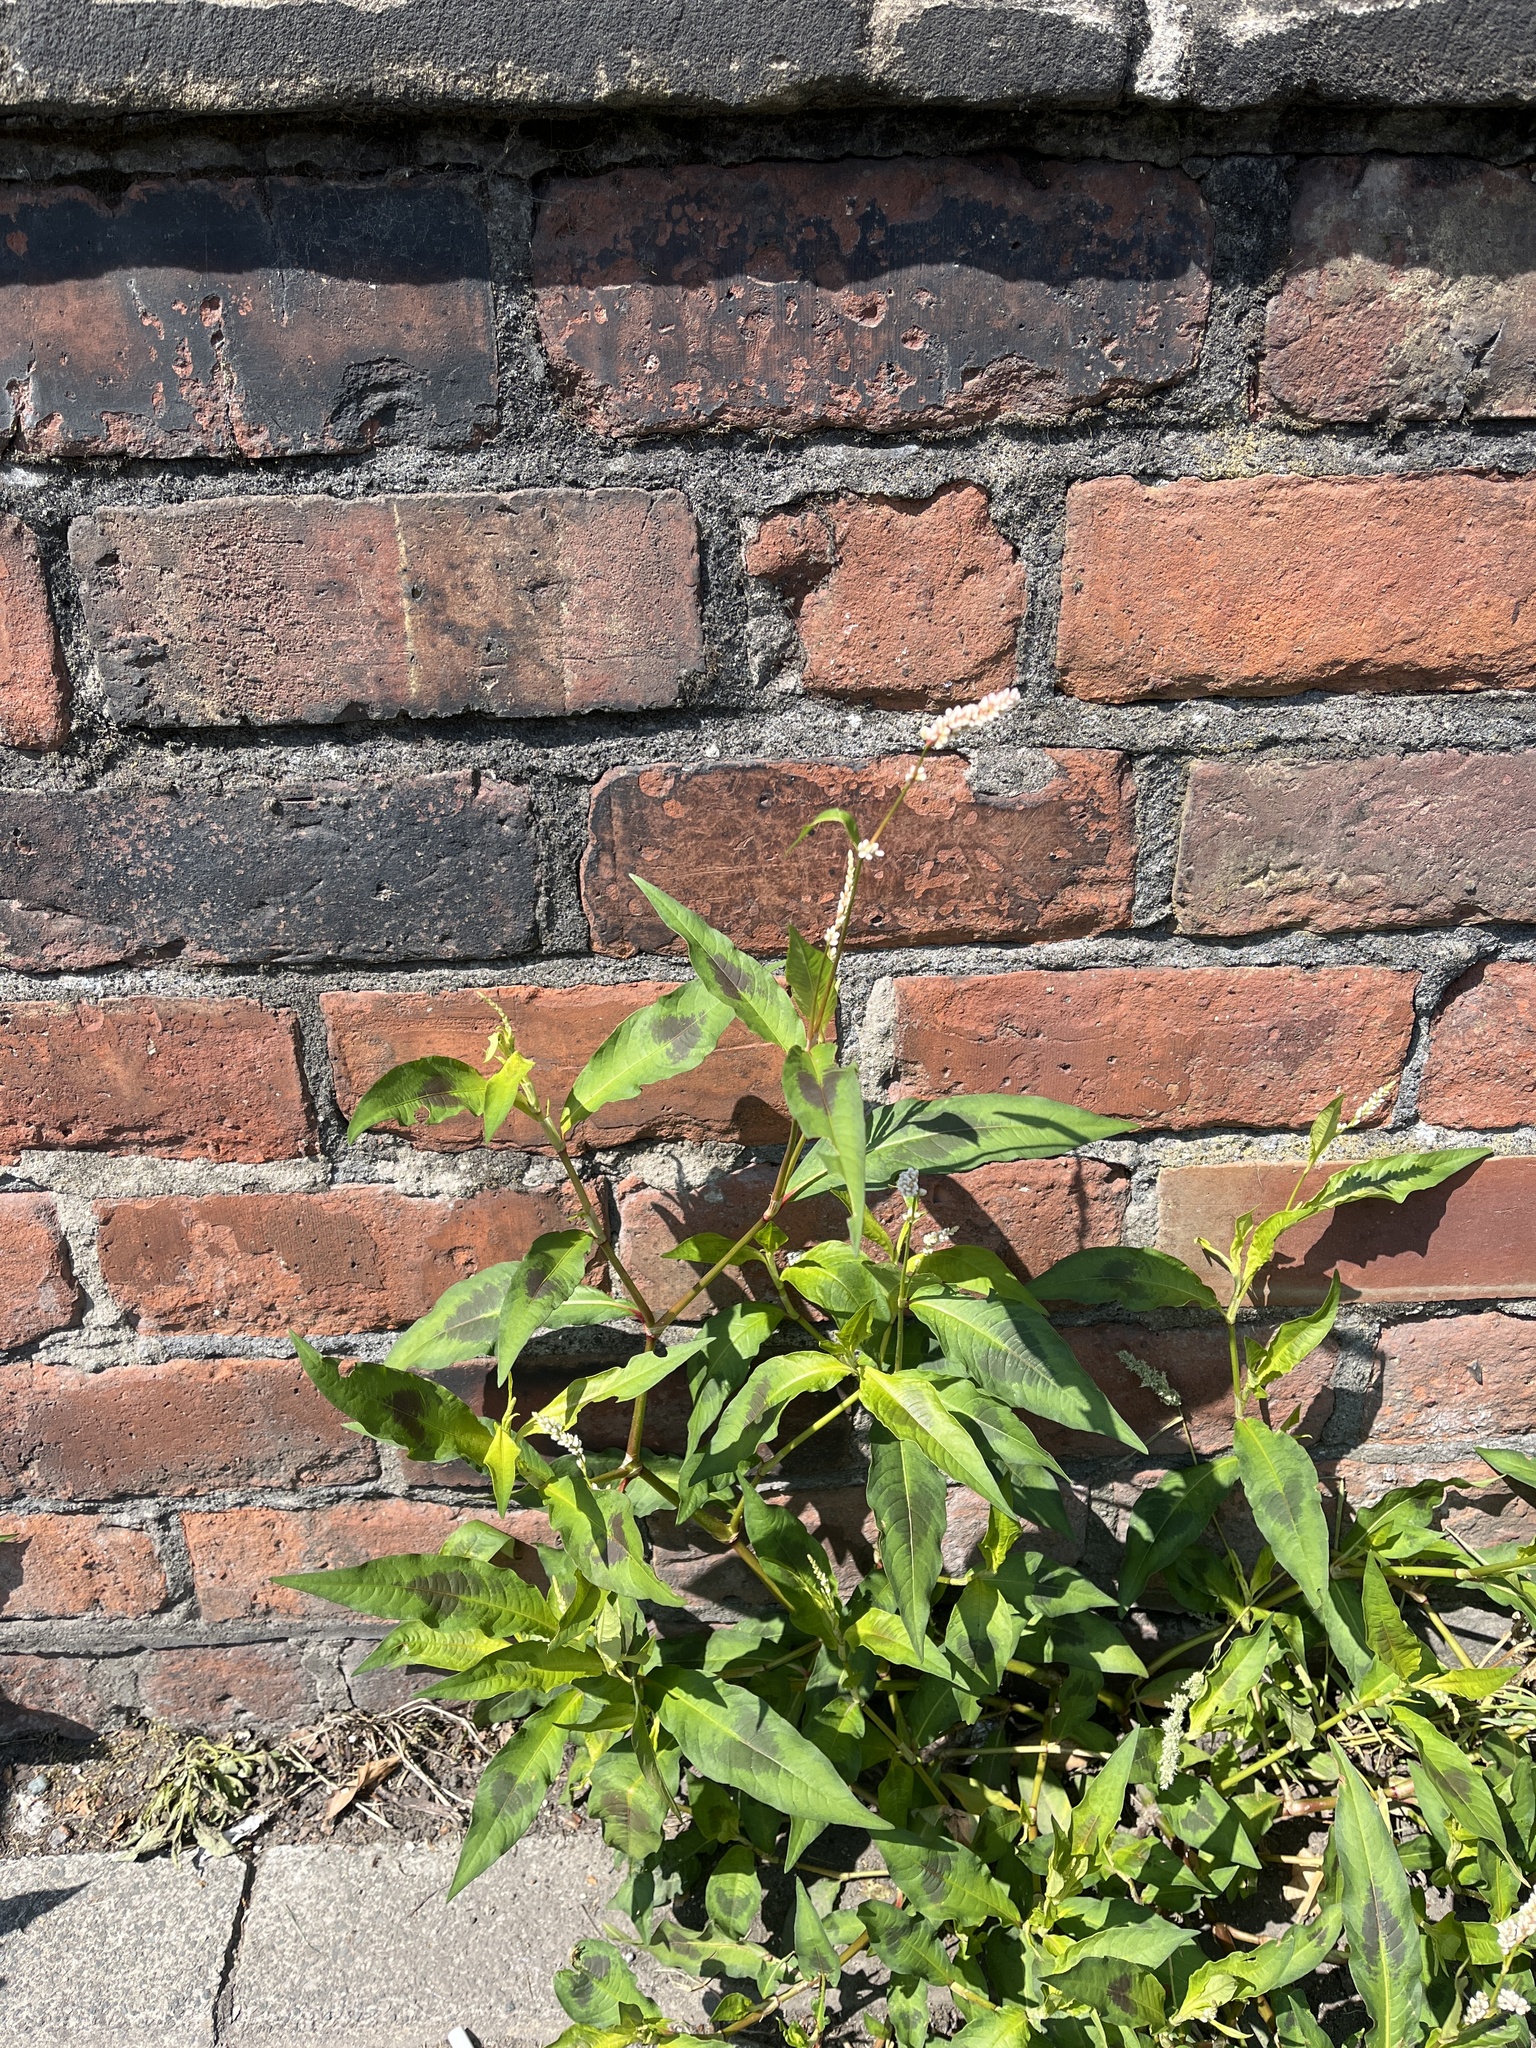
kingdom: Plantae
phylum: Tracheophyta
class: Magnoliopsida
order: Caryophyllales
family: Polygonaceae
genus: Persicaria
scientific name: Persicaria maculosa
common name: Redshank
